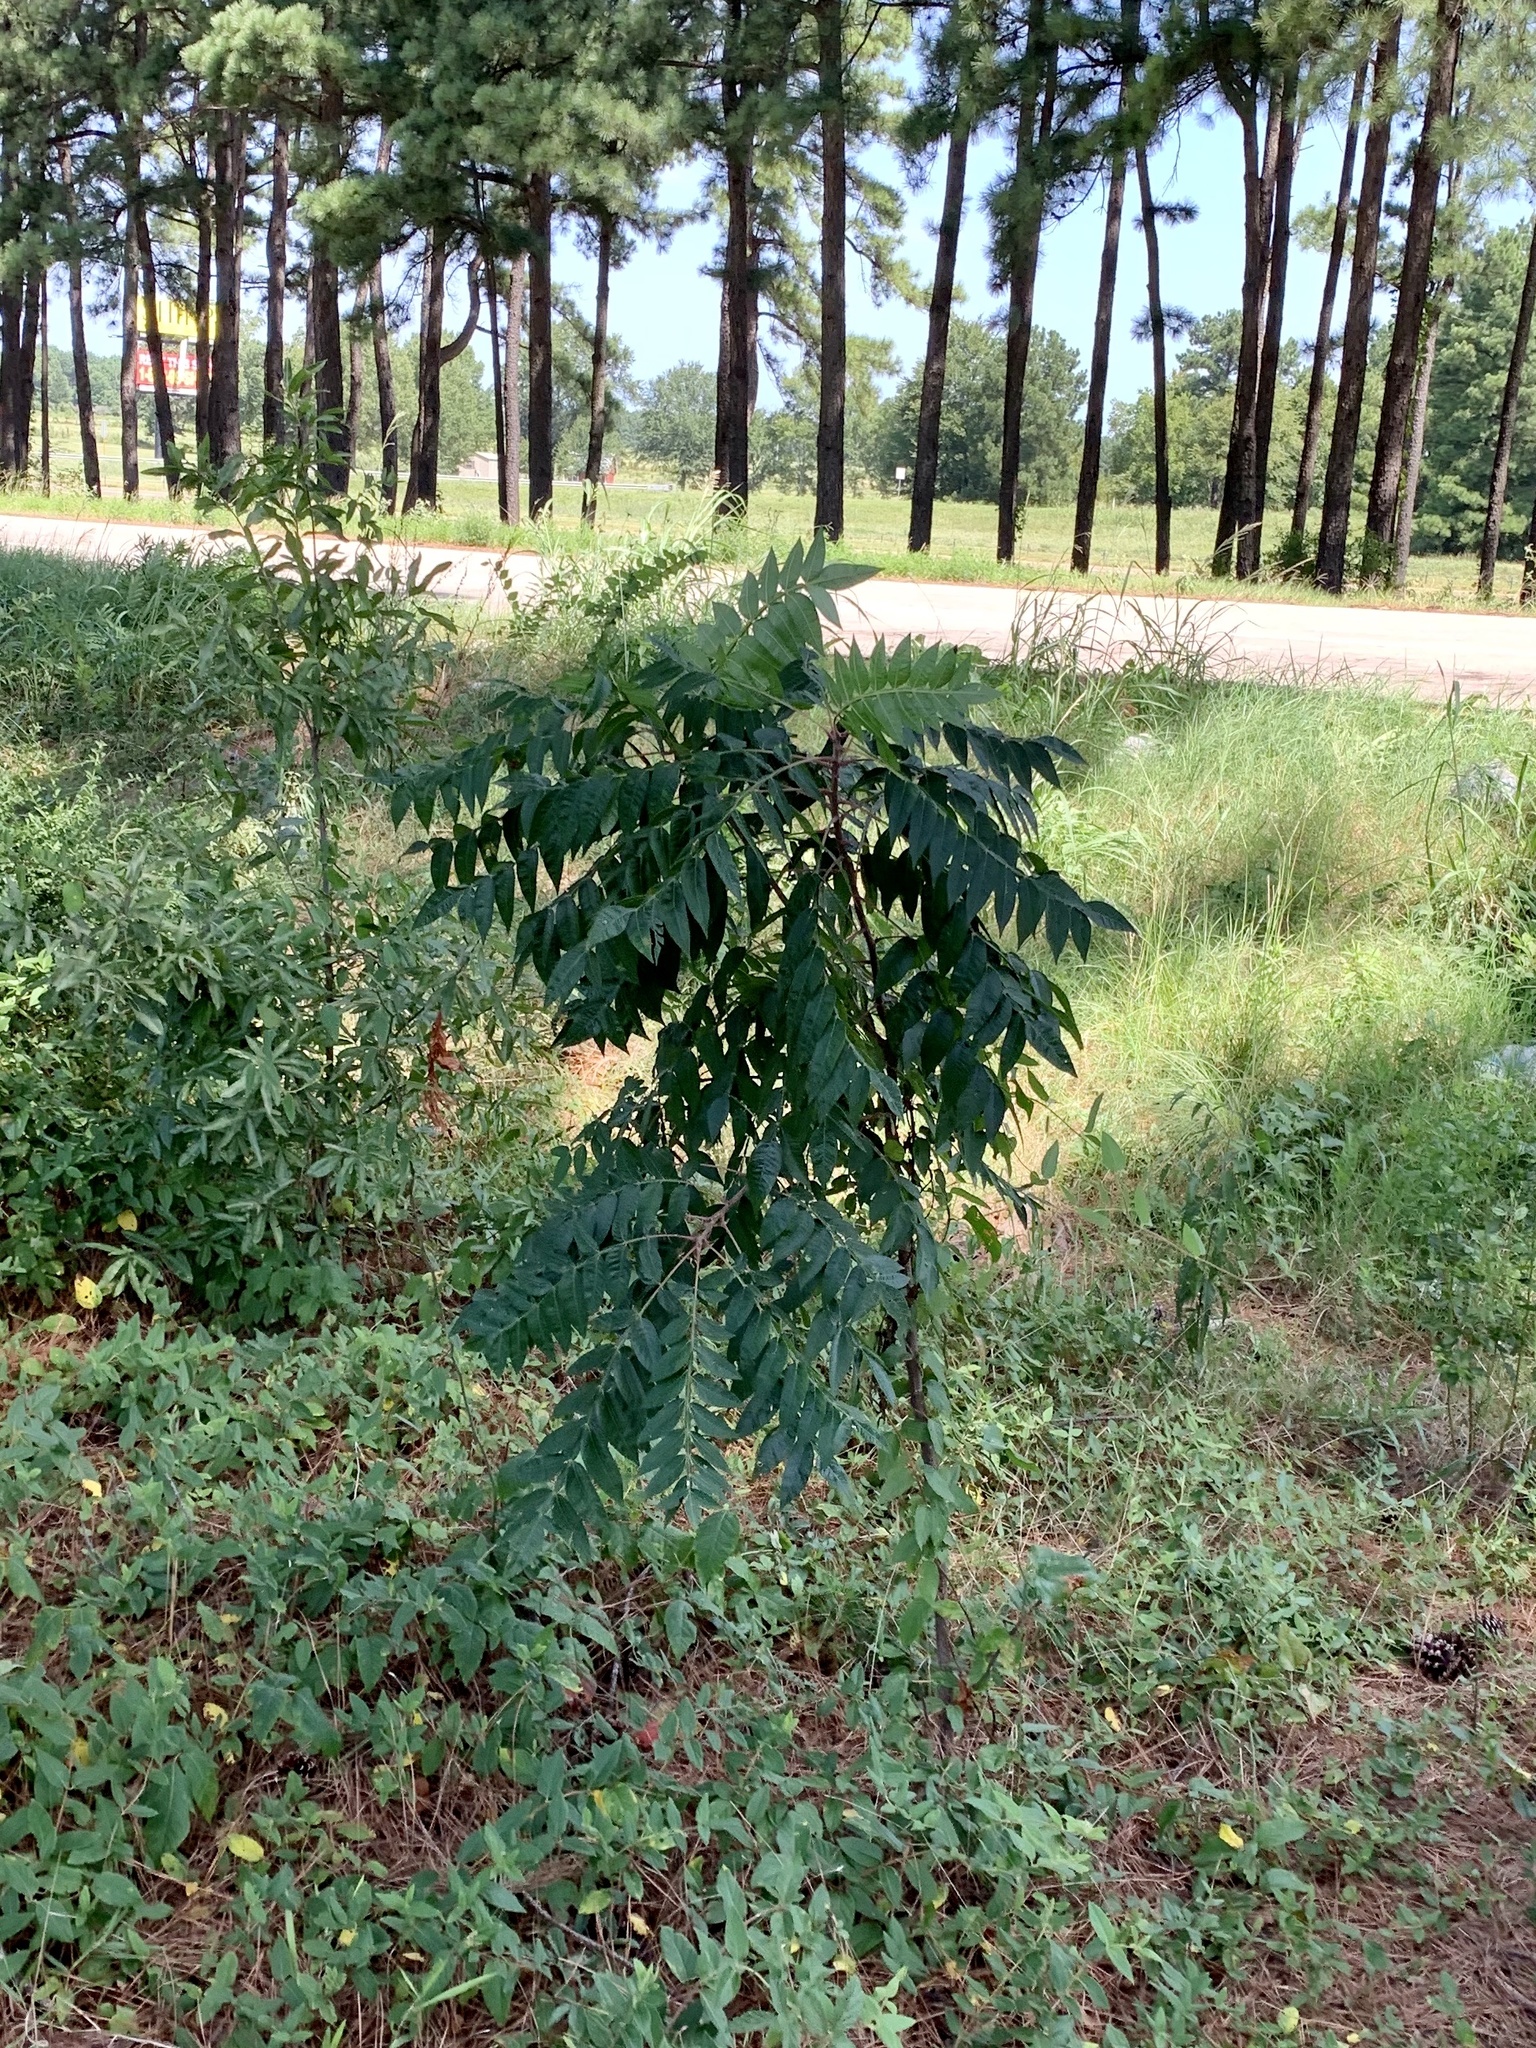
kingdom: Plantae
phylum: Tracheophyta
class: Magnoliopsida
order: Sapindales
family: Anacardiaceae
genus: Rhus
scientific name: Rhus copallina
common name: Shining sumac
